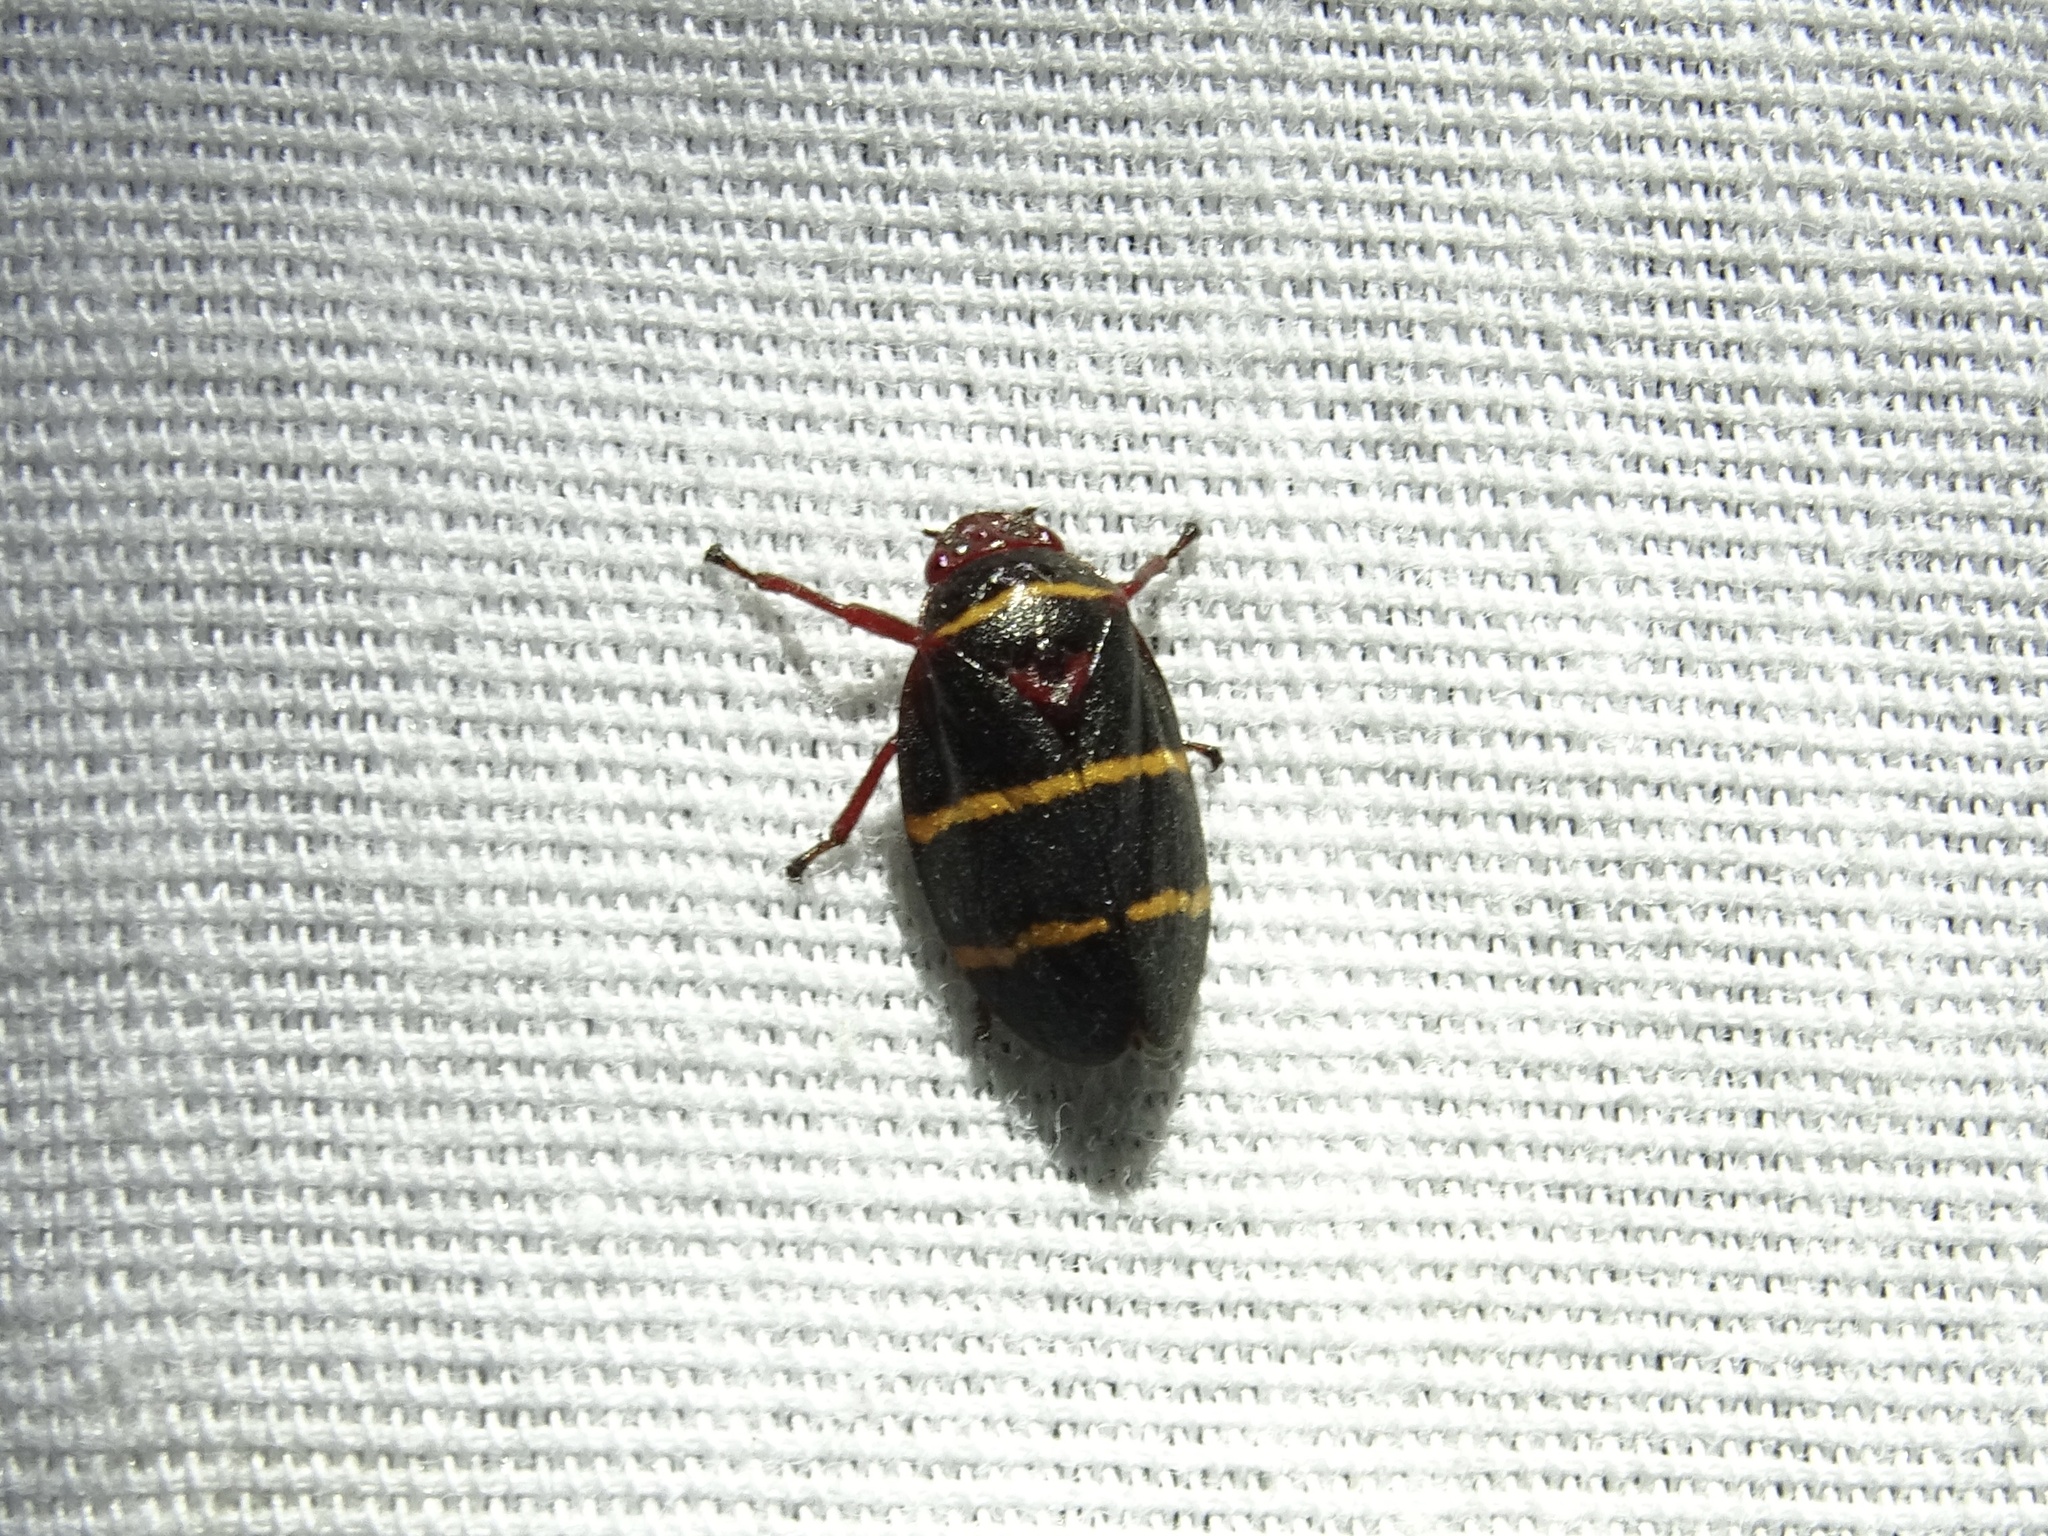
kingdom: Animalia
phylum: Arthropoda
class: Insecta
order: Hemiptera
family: Cercopidae
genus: Prosapia
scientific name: Prosapia bicincta
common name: Twolined spittlebug
